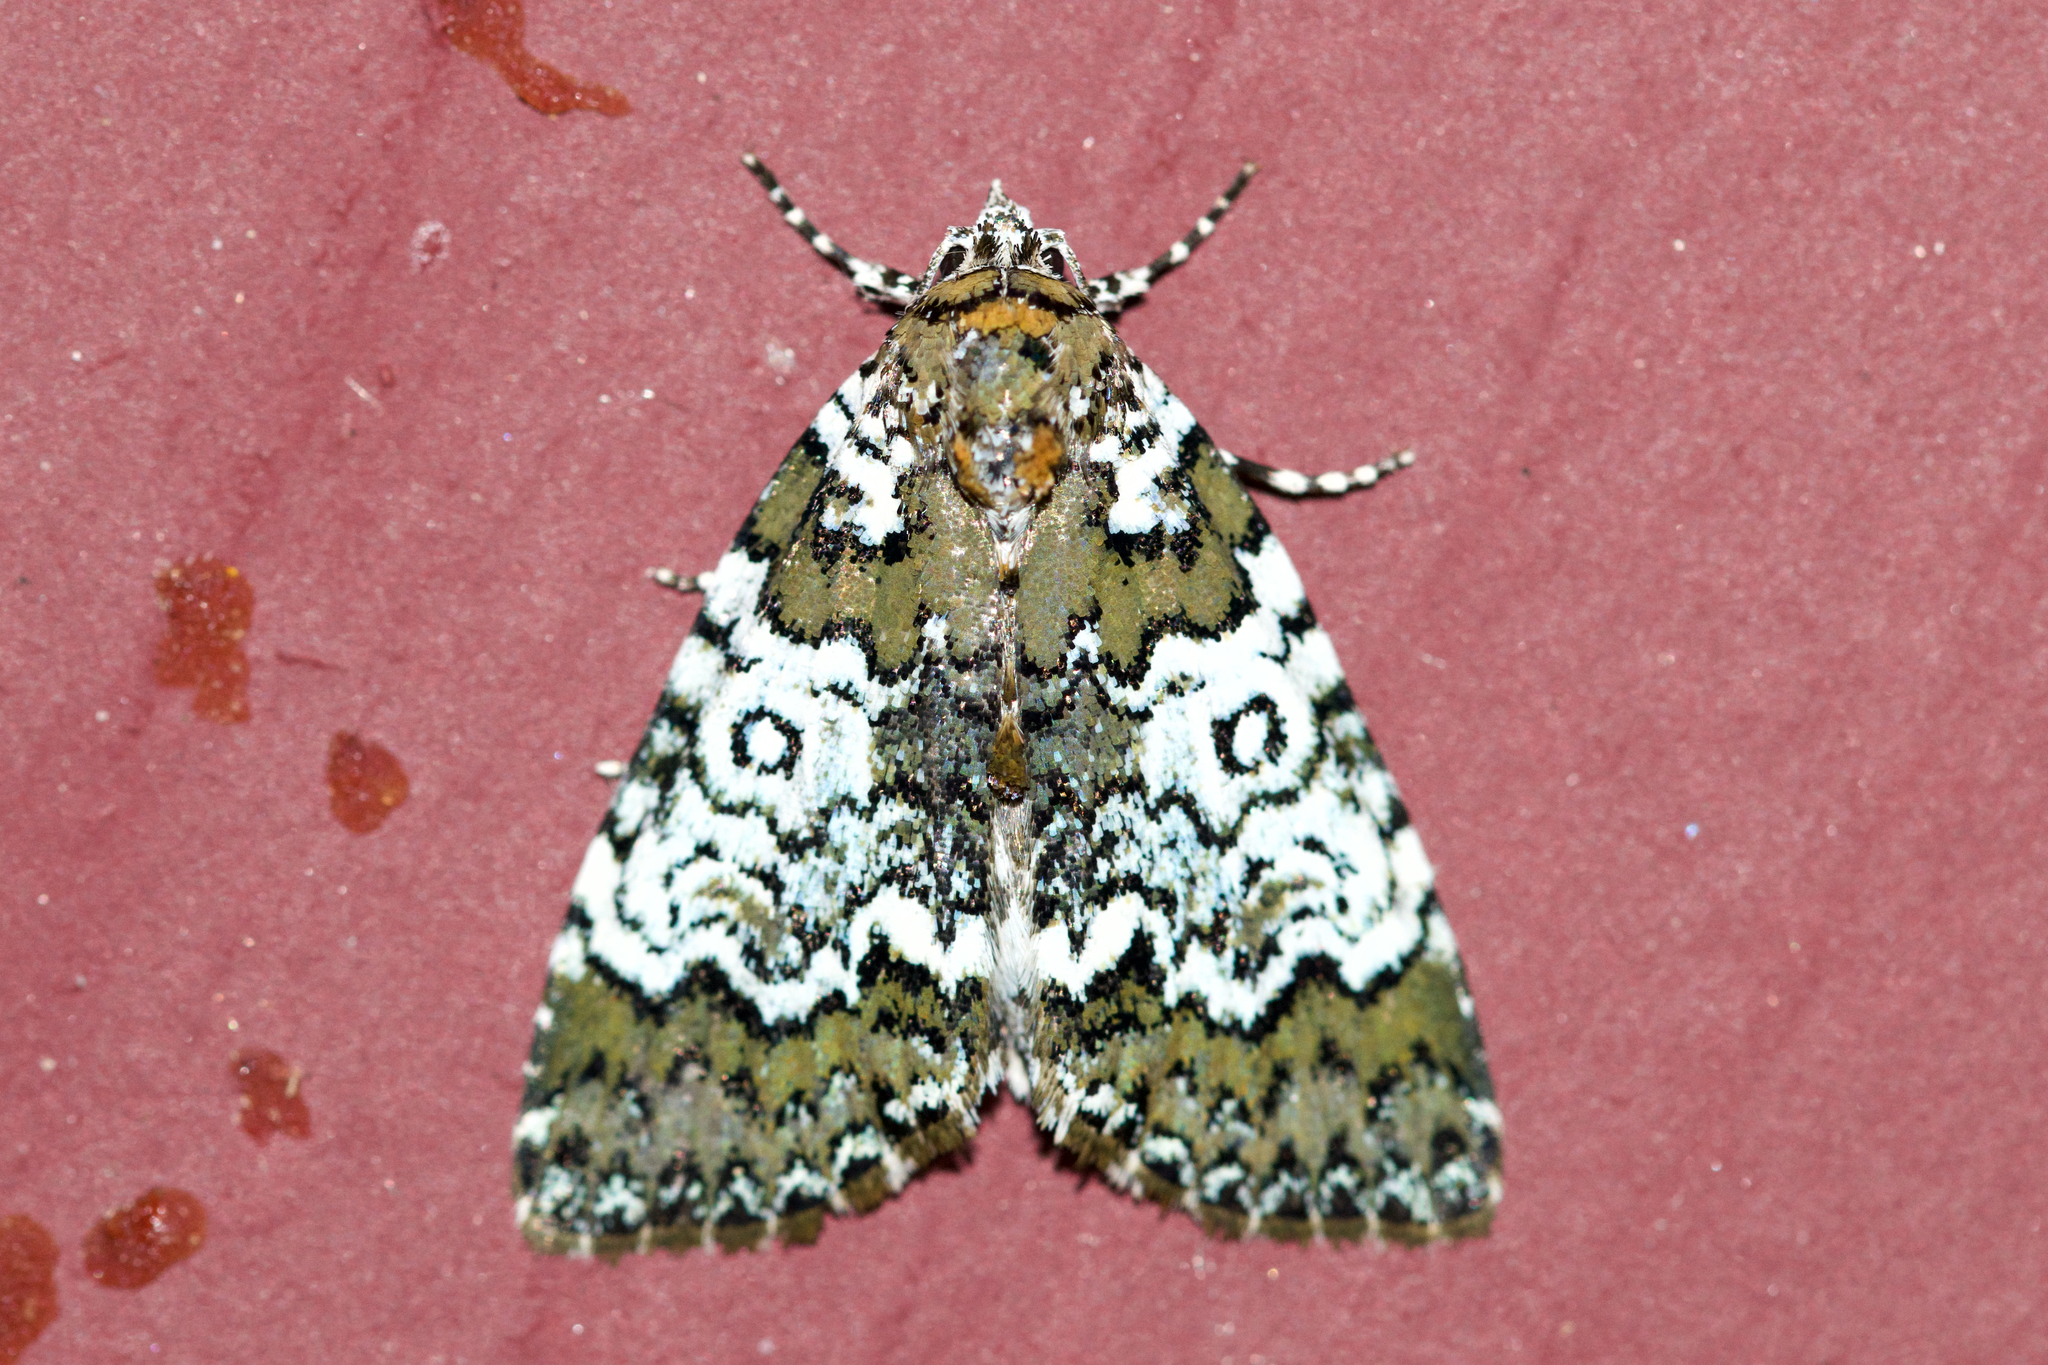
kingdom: Animalia
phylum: Arthropoda
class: Insecta
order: Lepidoptera
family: Noctuidae
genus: Cerma
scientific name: Cerma cora
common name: Bird dropping moth
